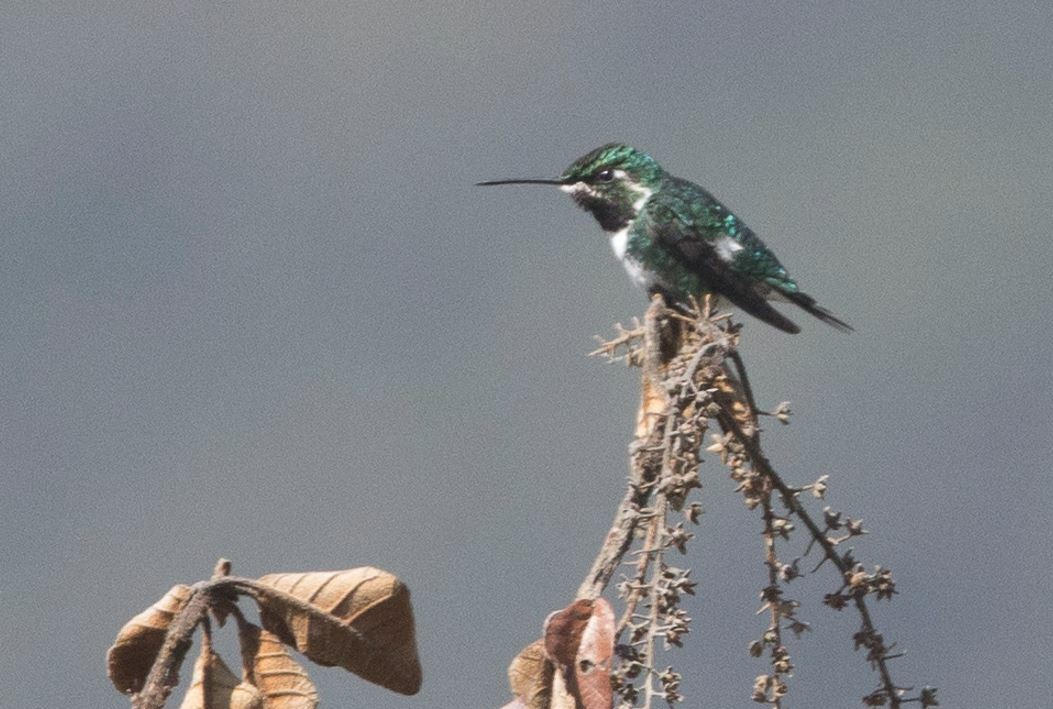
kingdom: Animalia
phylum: Chordata
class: Aves
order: Apodiformes
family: Trochilidae
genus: Chaetocercus
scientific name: Chaetocercus mulsant
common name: White-bellied woodstar
